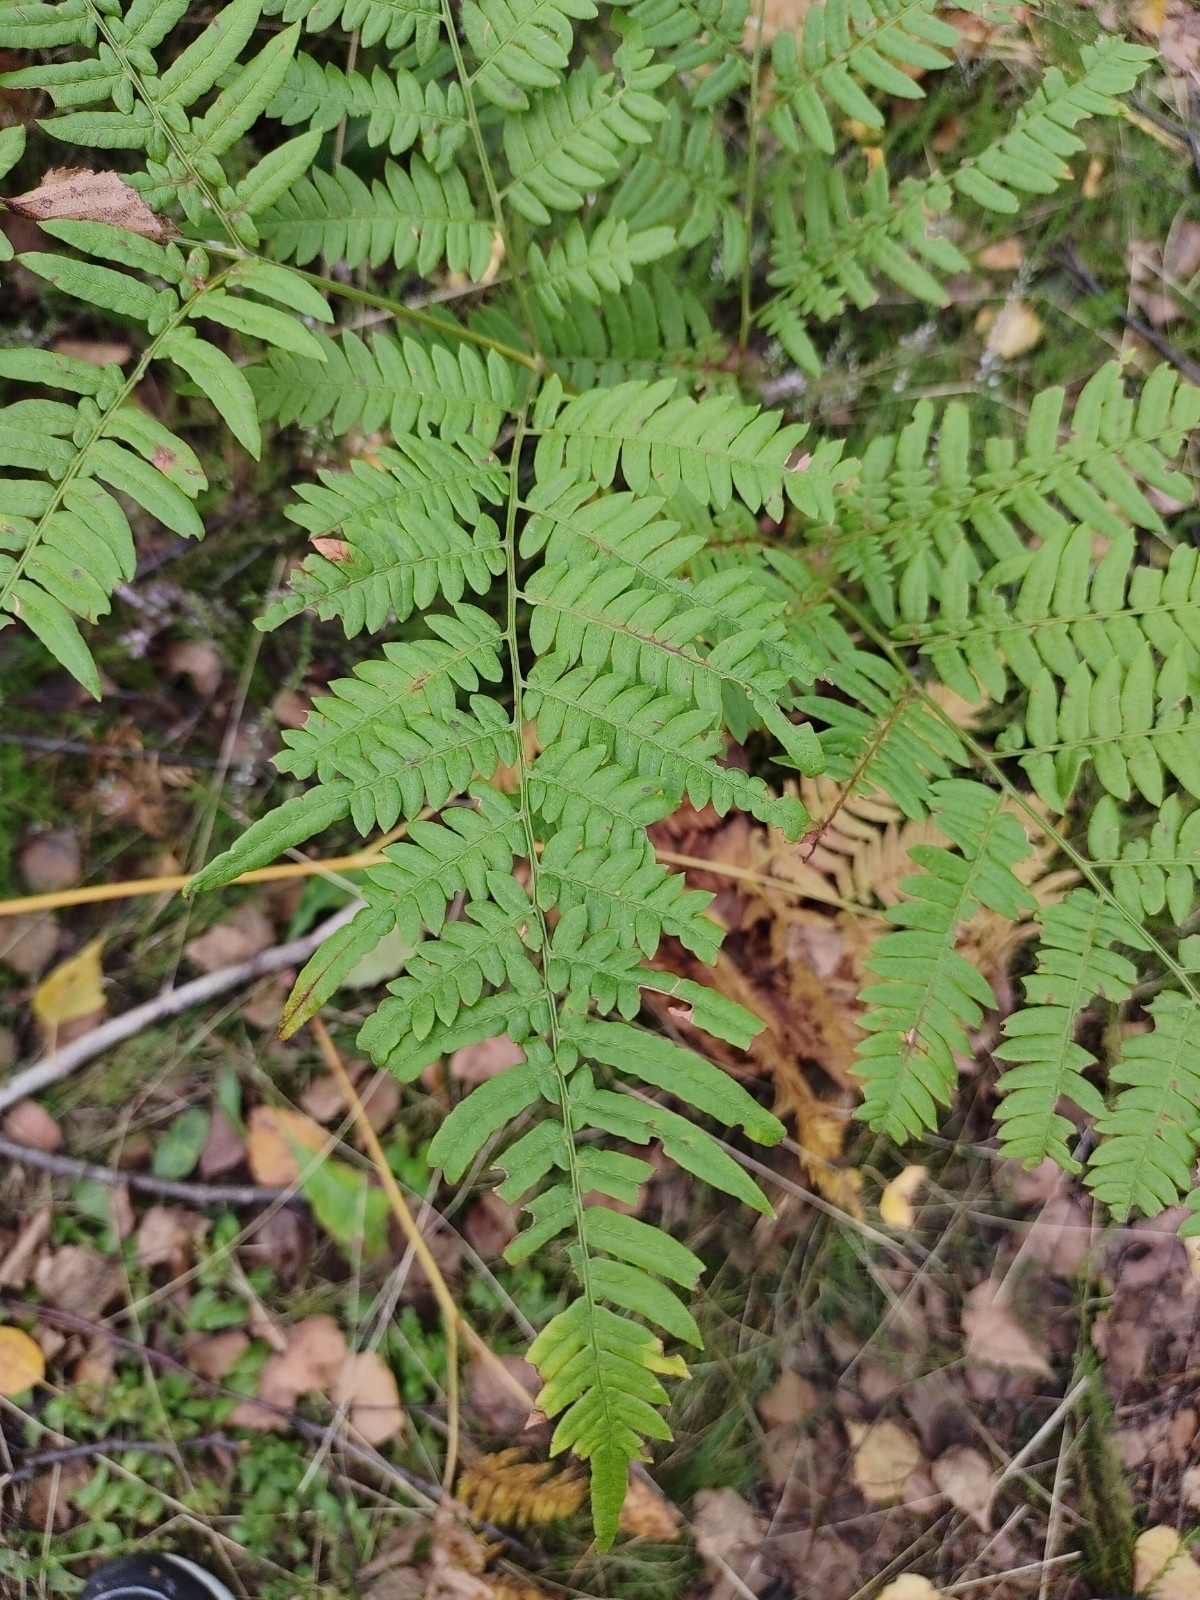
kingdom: Plantae
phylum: Tracheophyta
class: Polypodiopsida
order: Polypodiales
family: Dennstaedtiaceae
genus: Pteridium
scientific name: Pteridium aquilinum
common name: Bracken
